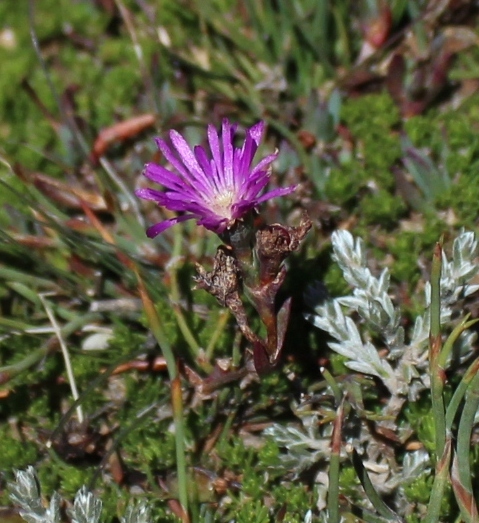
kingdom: Plantae
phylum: Tracheophyta
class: Magnoliopsida
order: Caryophyllales
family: Aizoaceae
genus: Erepsia
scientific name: Erepsia esterhuyseniae
